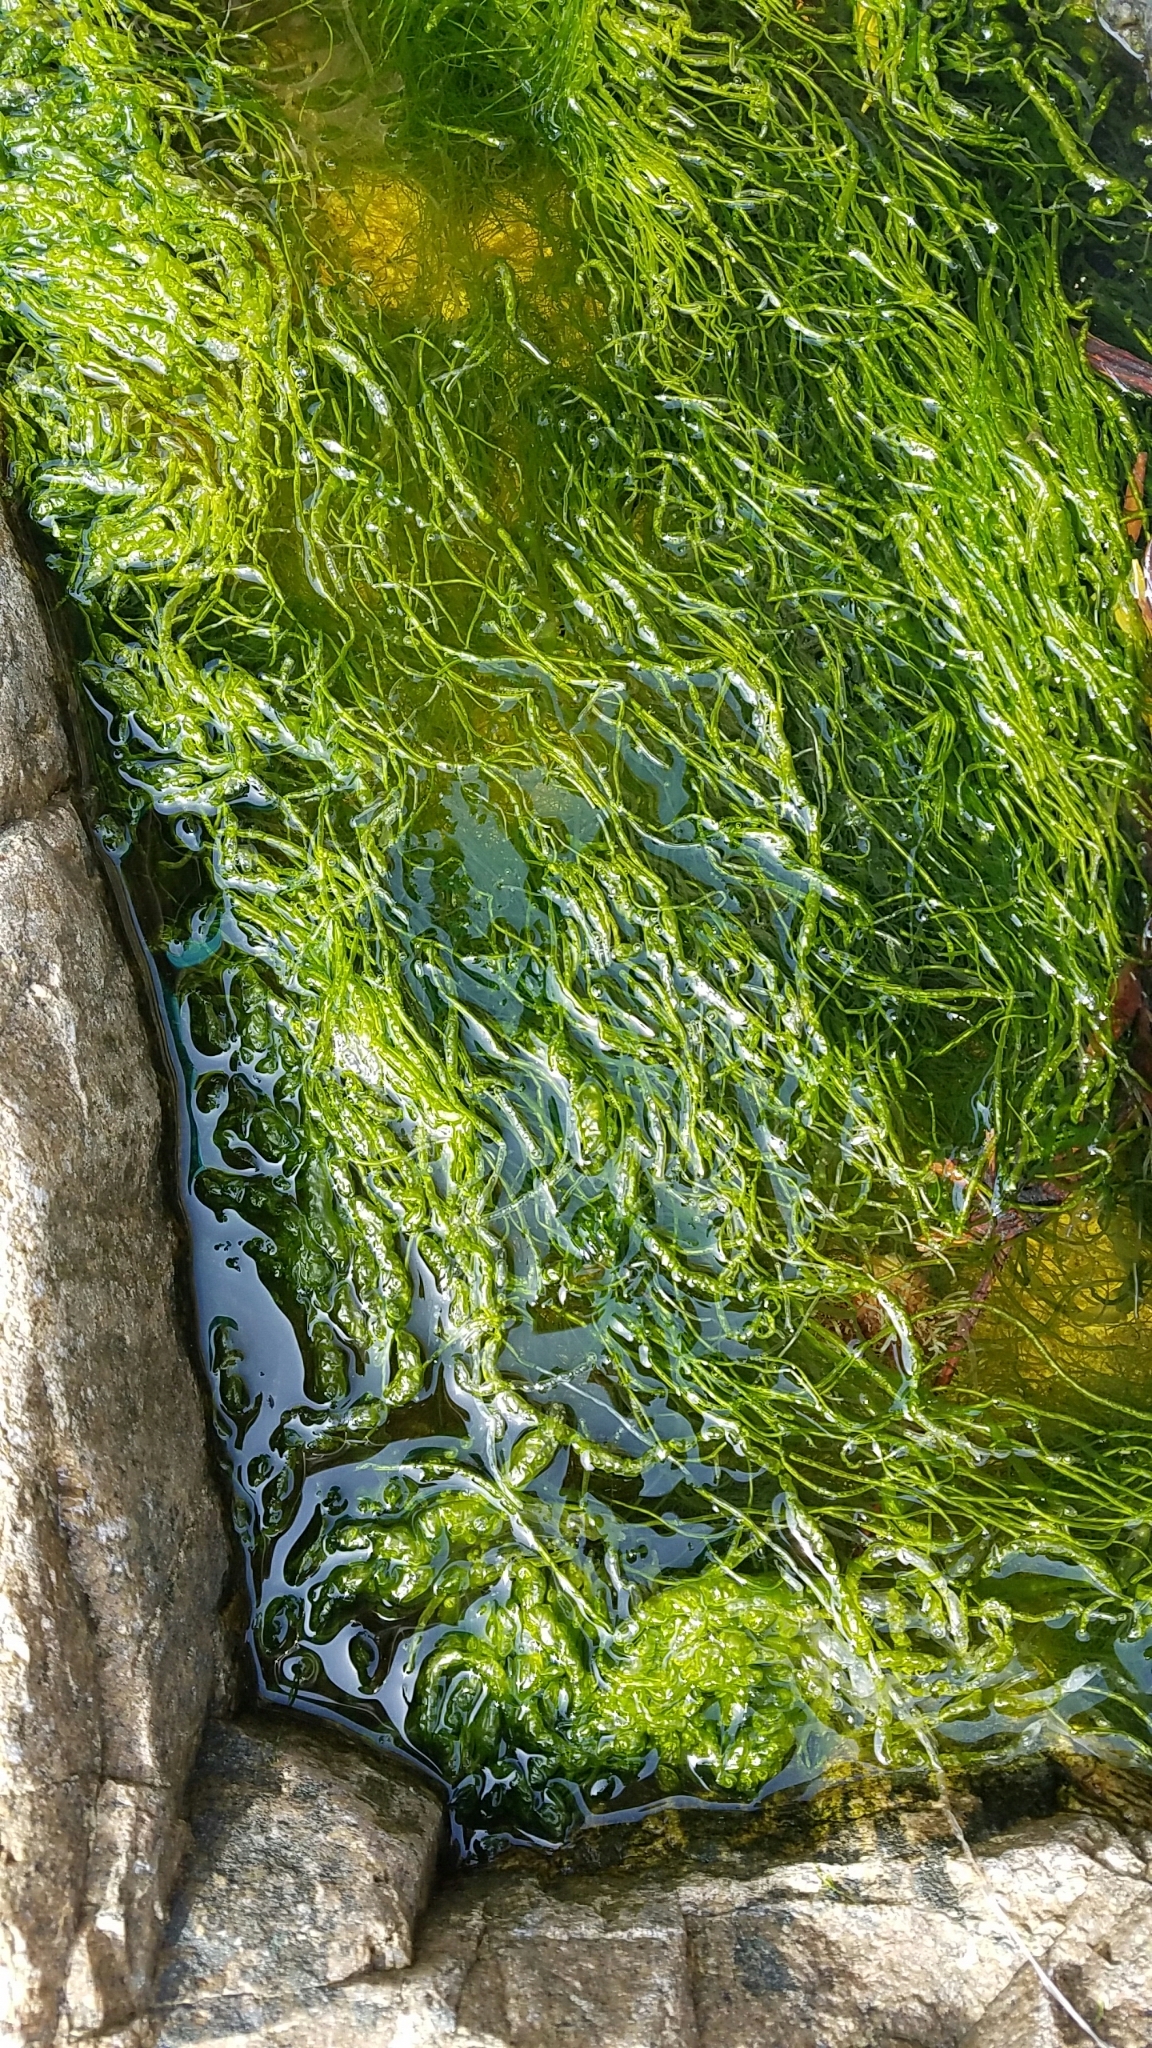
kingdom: Plantae
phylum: Chlorophyta
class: Ulvophyceae
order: Ulvales
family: Ulvaceae
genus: Ulva
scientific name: Ulva intestinalis
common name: Gut weed
